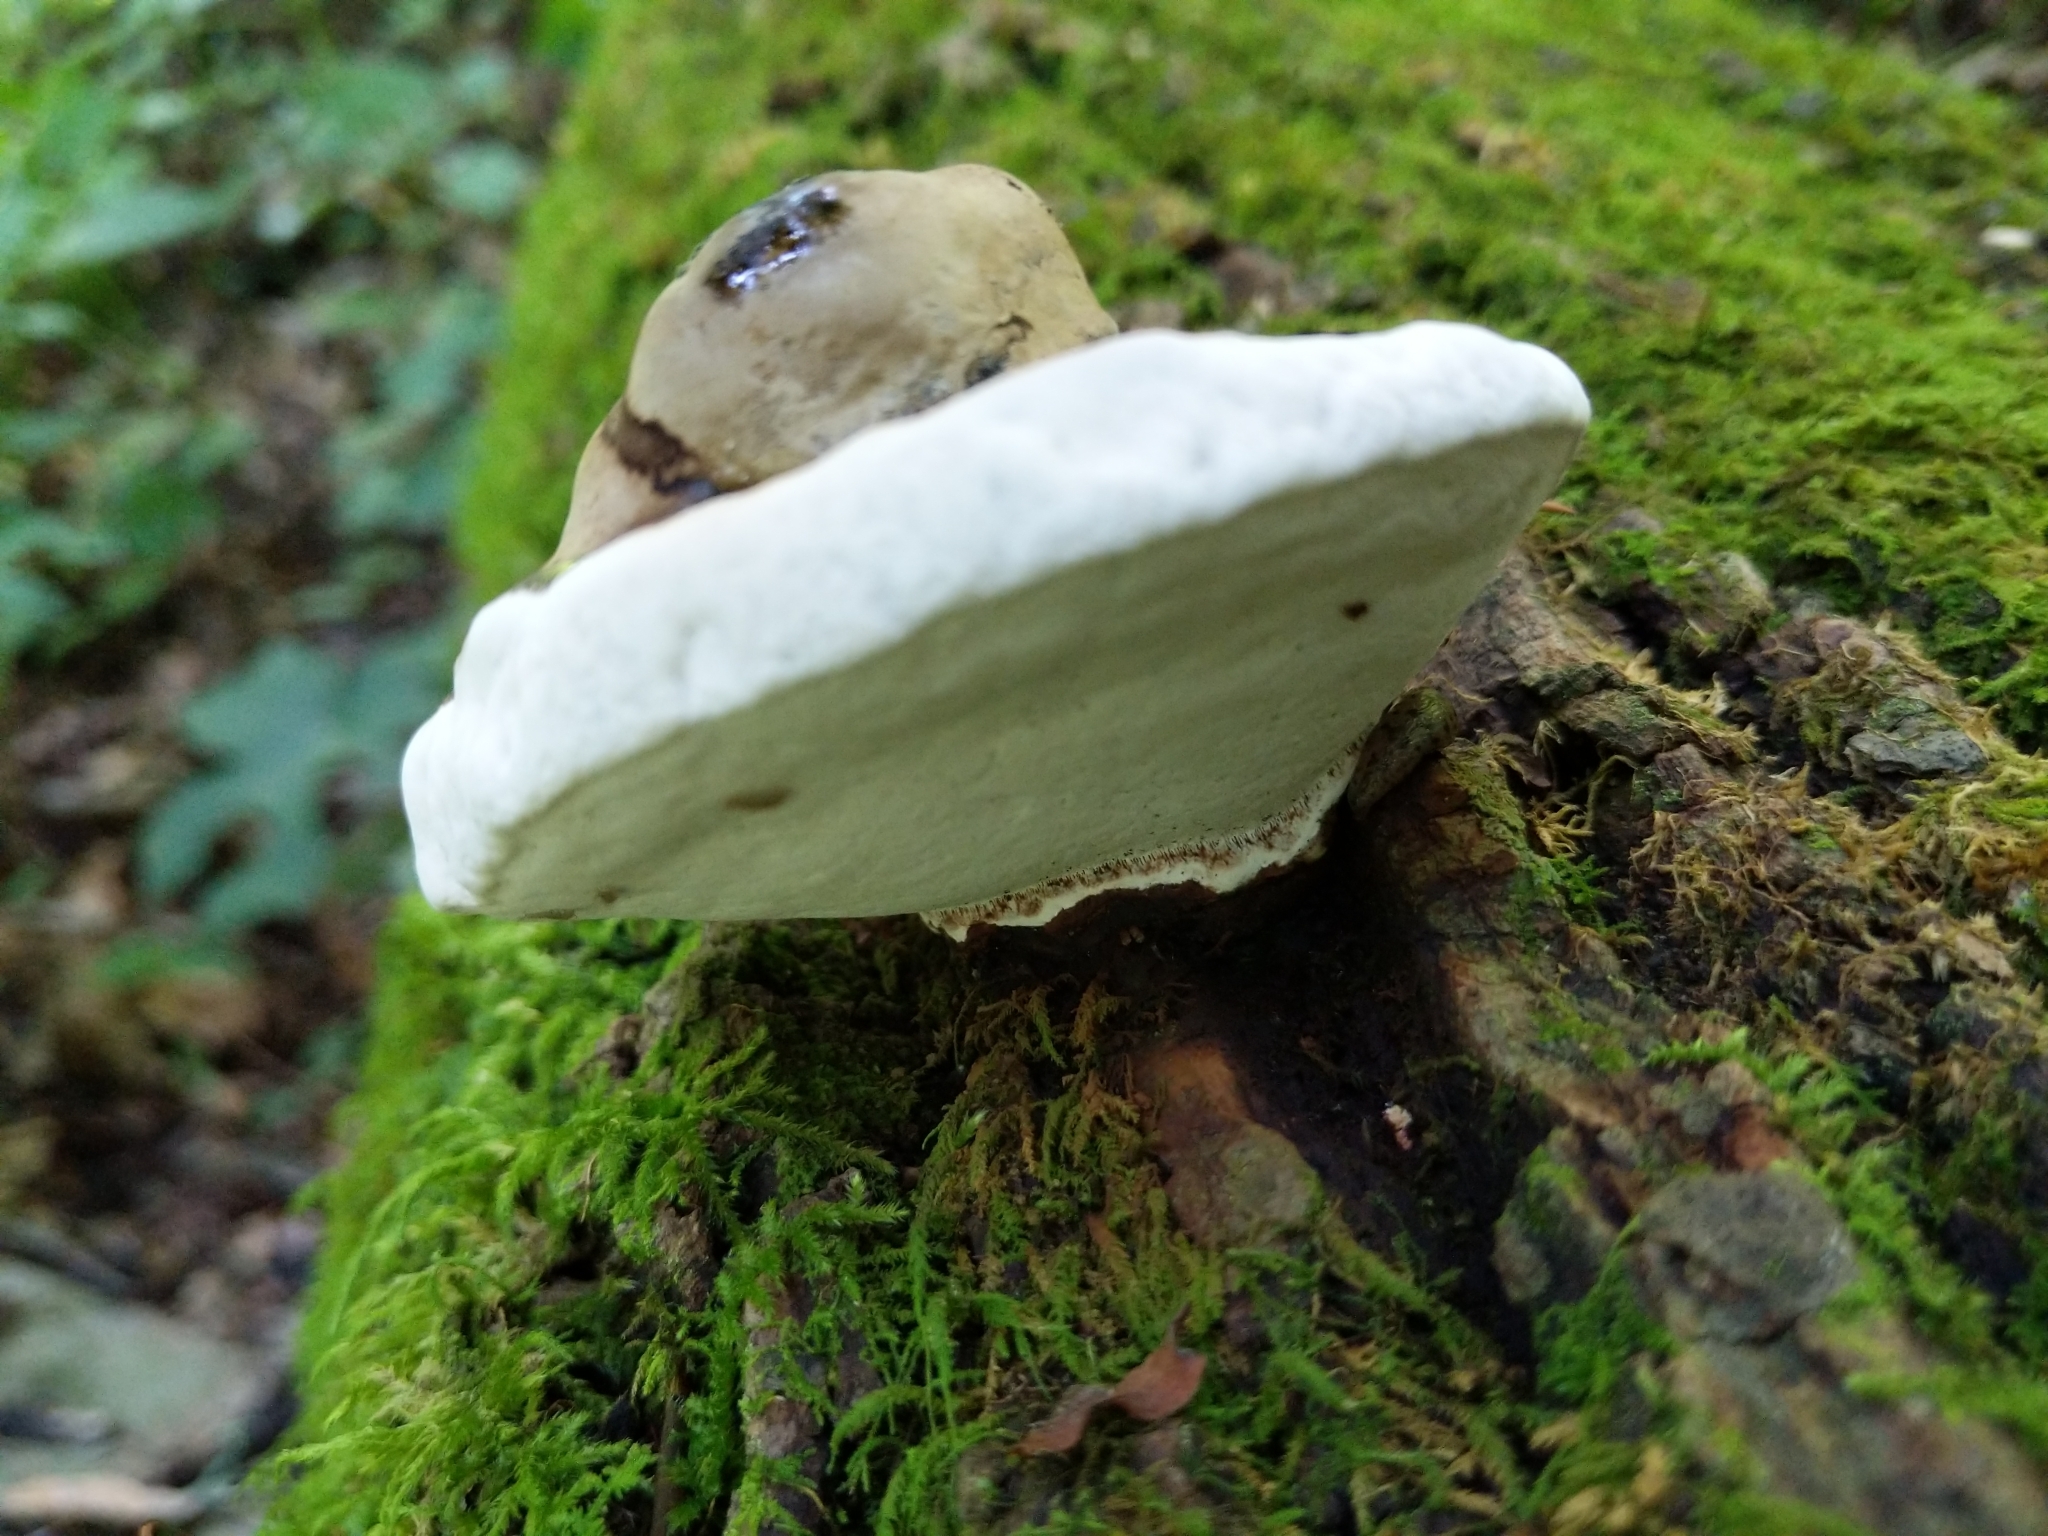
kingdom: Fungi
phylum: Basidiomycota
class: Agaricomycetes
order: Polyporales
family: Polyporaceae
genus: Ganoderma
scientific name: Ganoderma applanatum
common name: Artist's bracket
